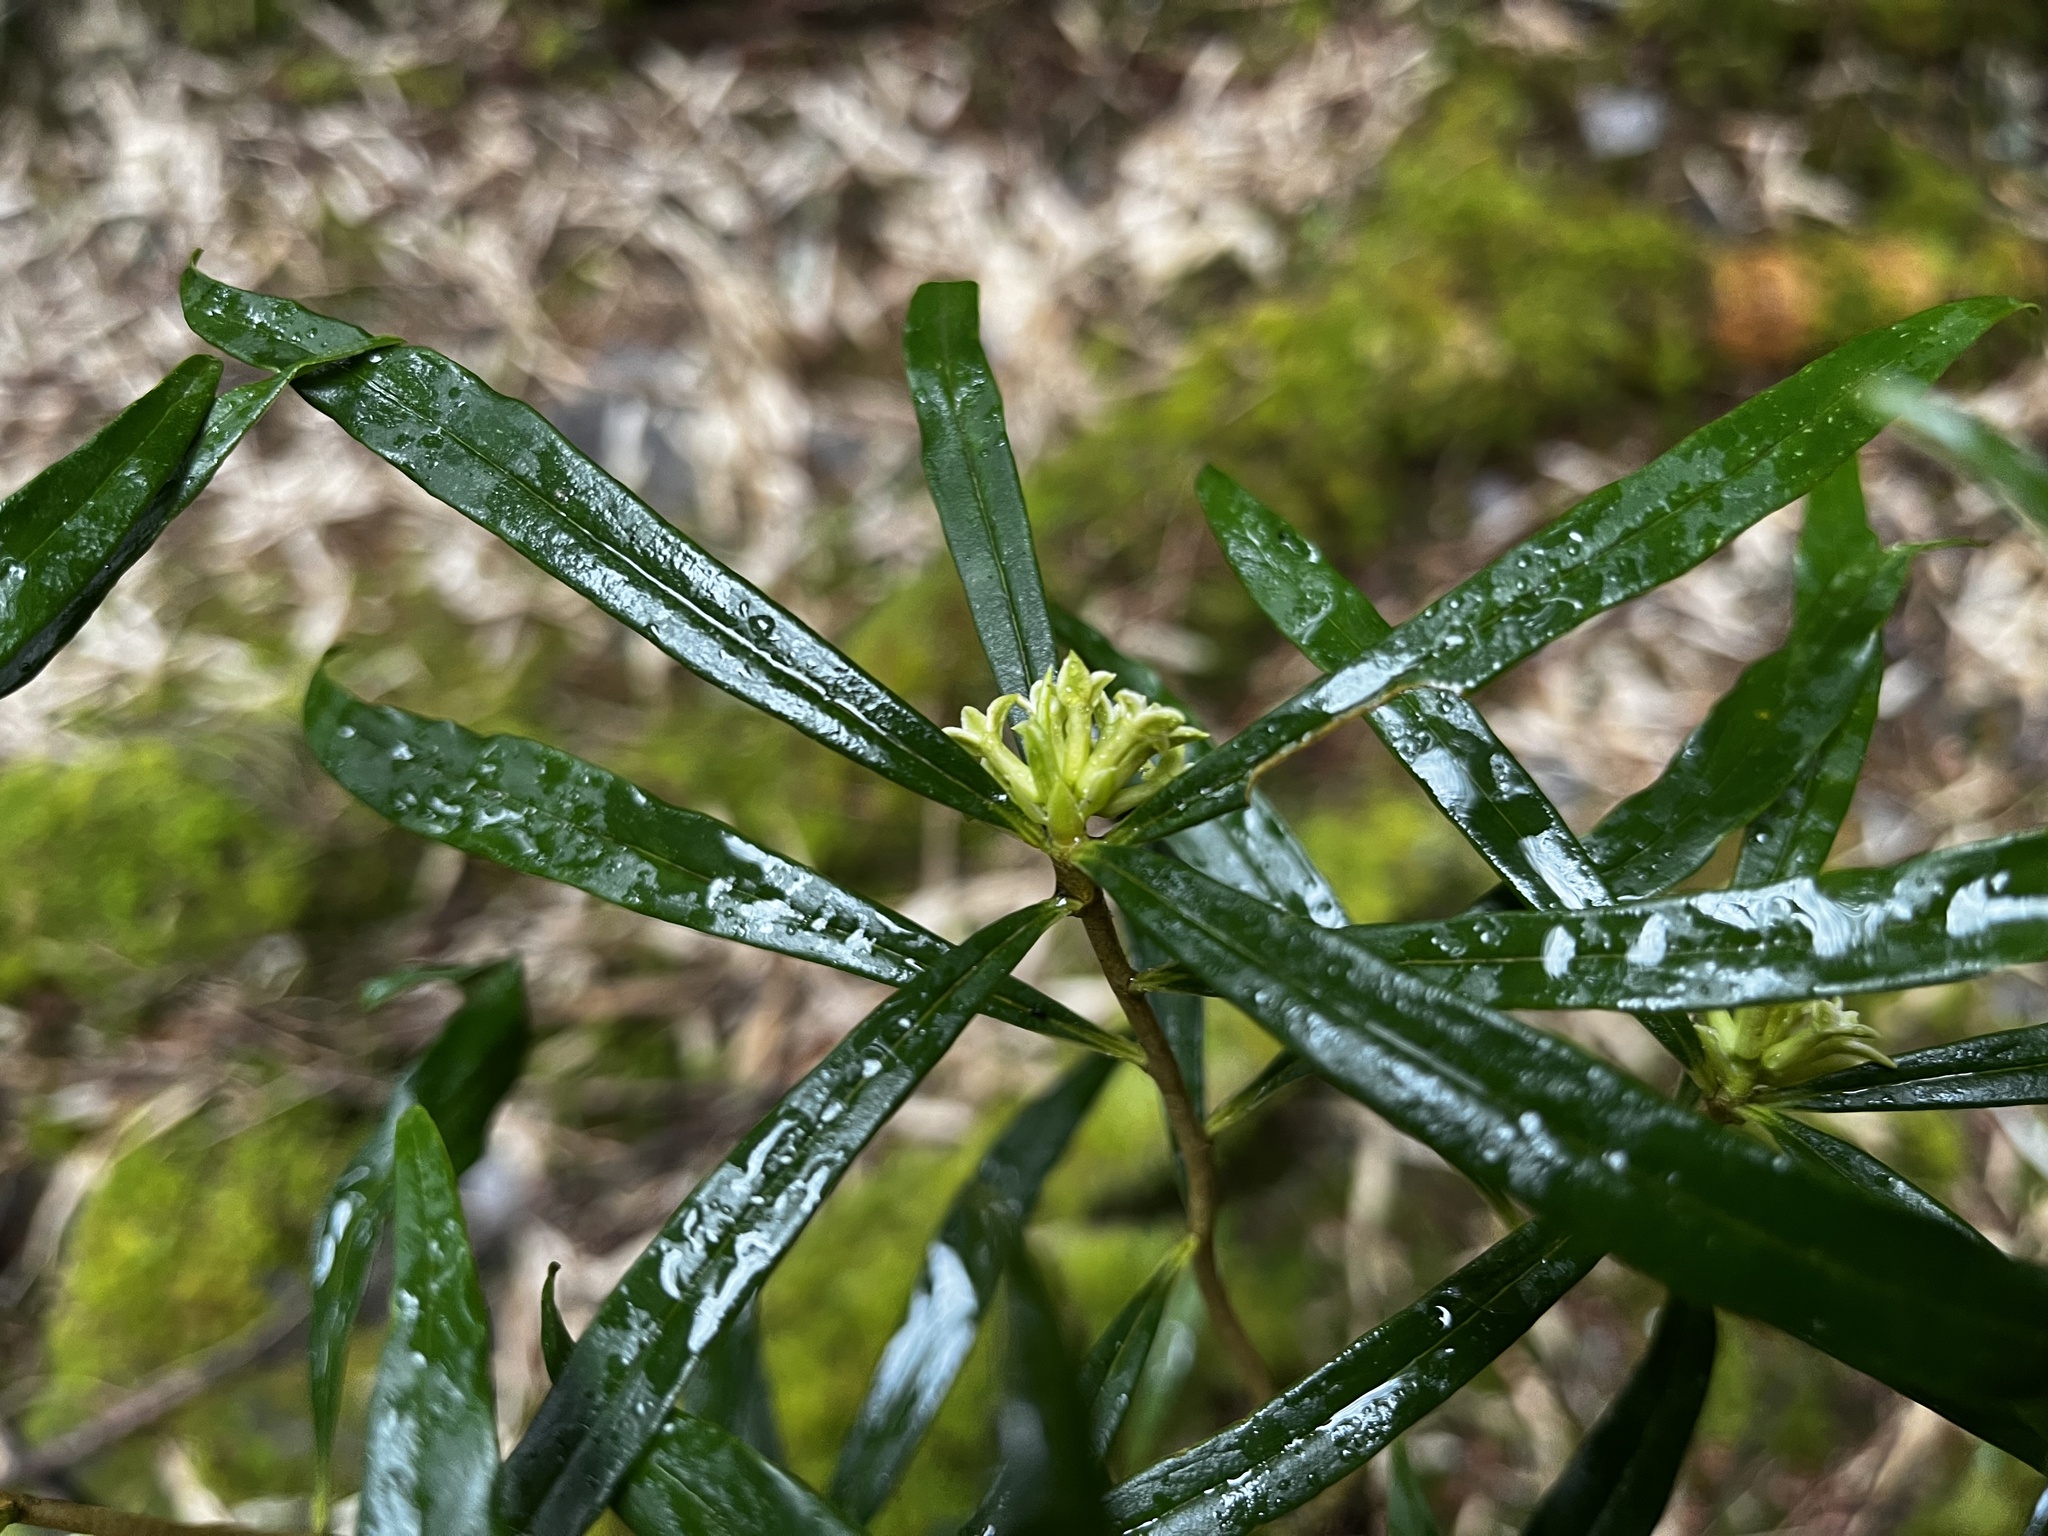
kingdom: Plantae
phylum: Tracheophyta
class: Magnoliopsida
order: Malvales
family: Thymelaeaceae
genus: Daphne
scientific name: Daphne arisanensis
